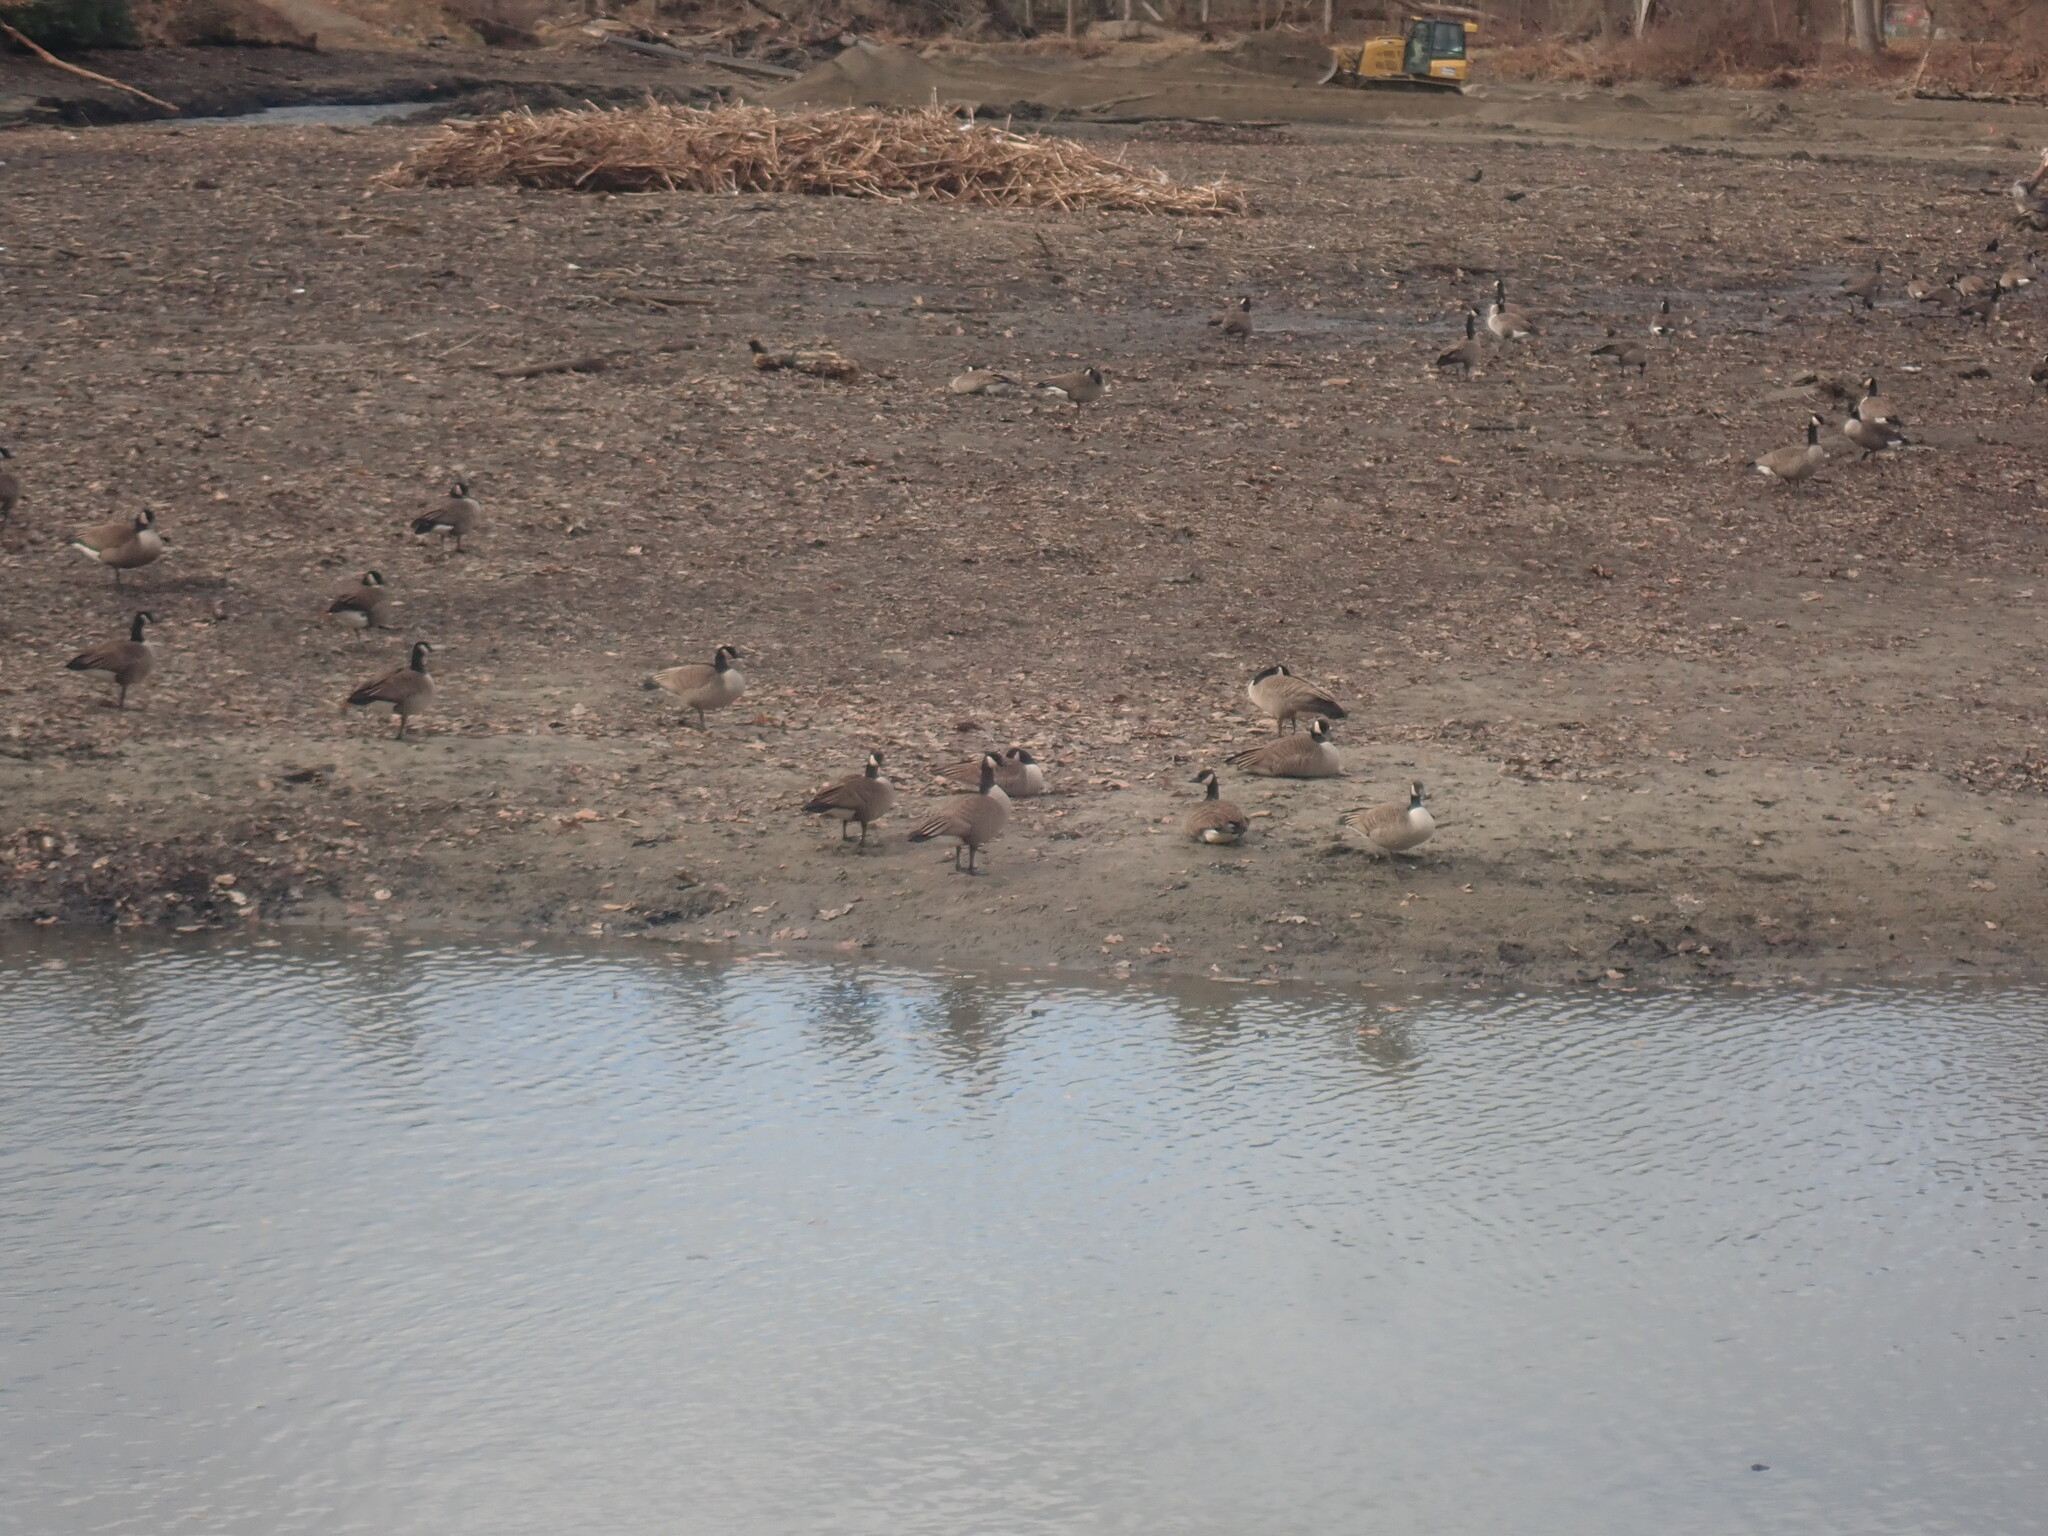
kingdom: Animalia
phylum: Chordata
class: Aves
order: Anseriformes
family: Anatidae
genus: Branta
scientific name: Branta canadensis
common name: Canada goose
